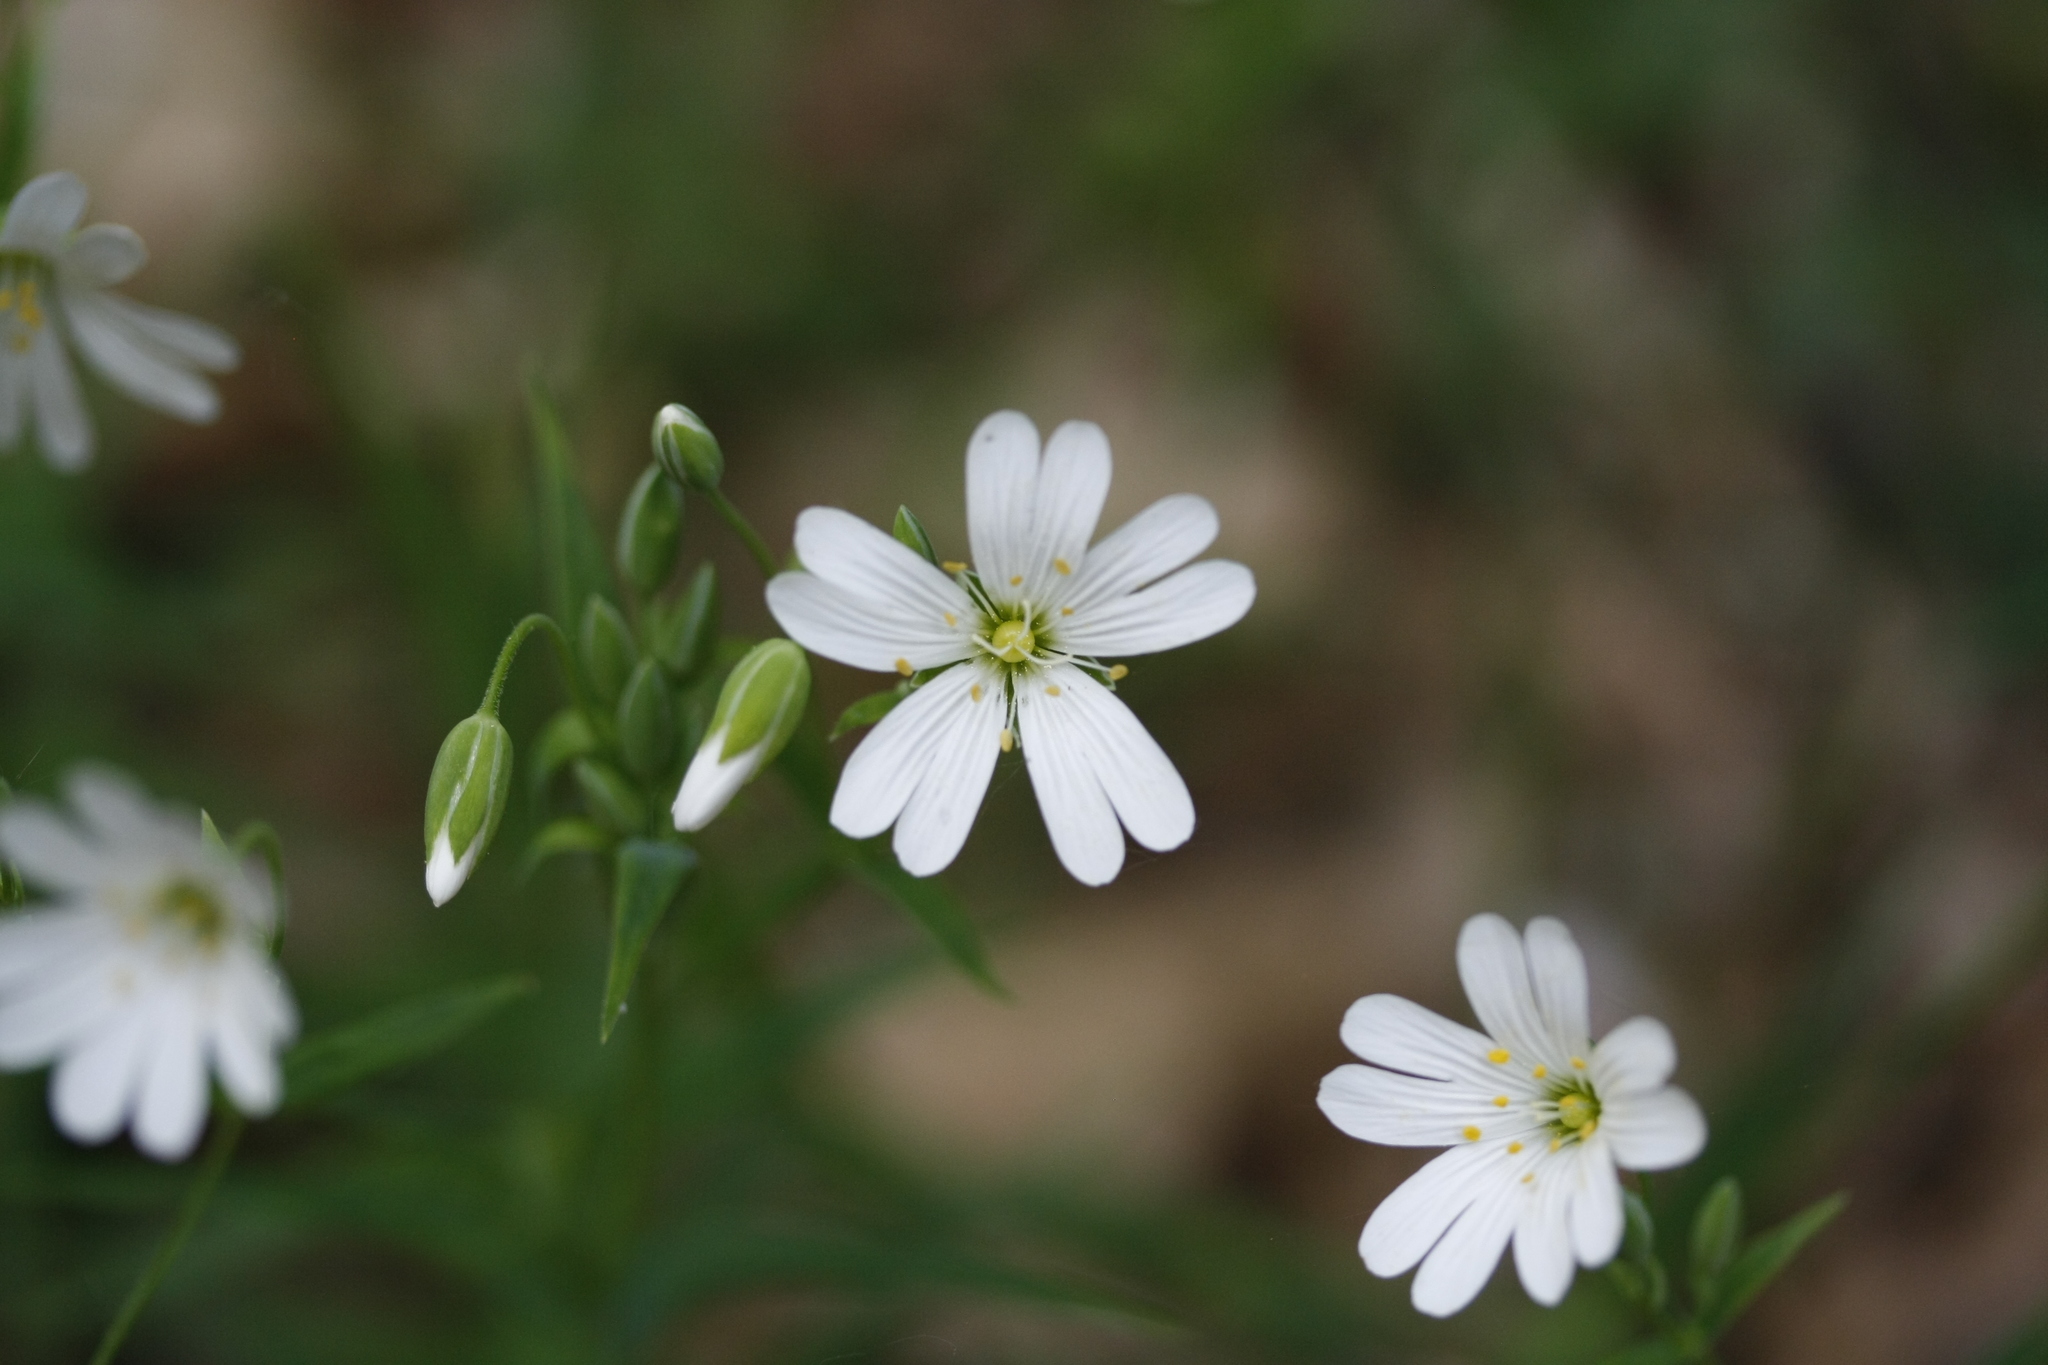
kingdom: Plantae
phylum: Tracheophyta
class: Magnoliopsida
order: Caryophyllales
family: Caryophyllaceae
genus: Rabelera
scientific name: Rabelera holostea
